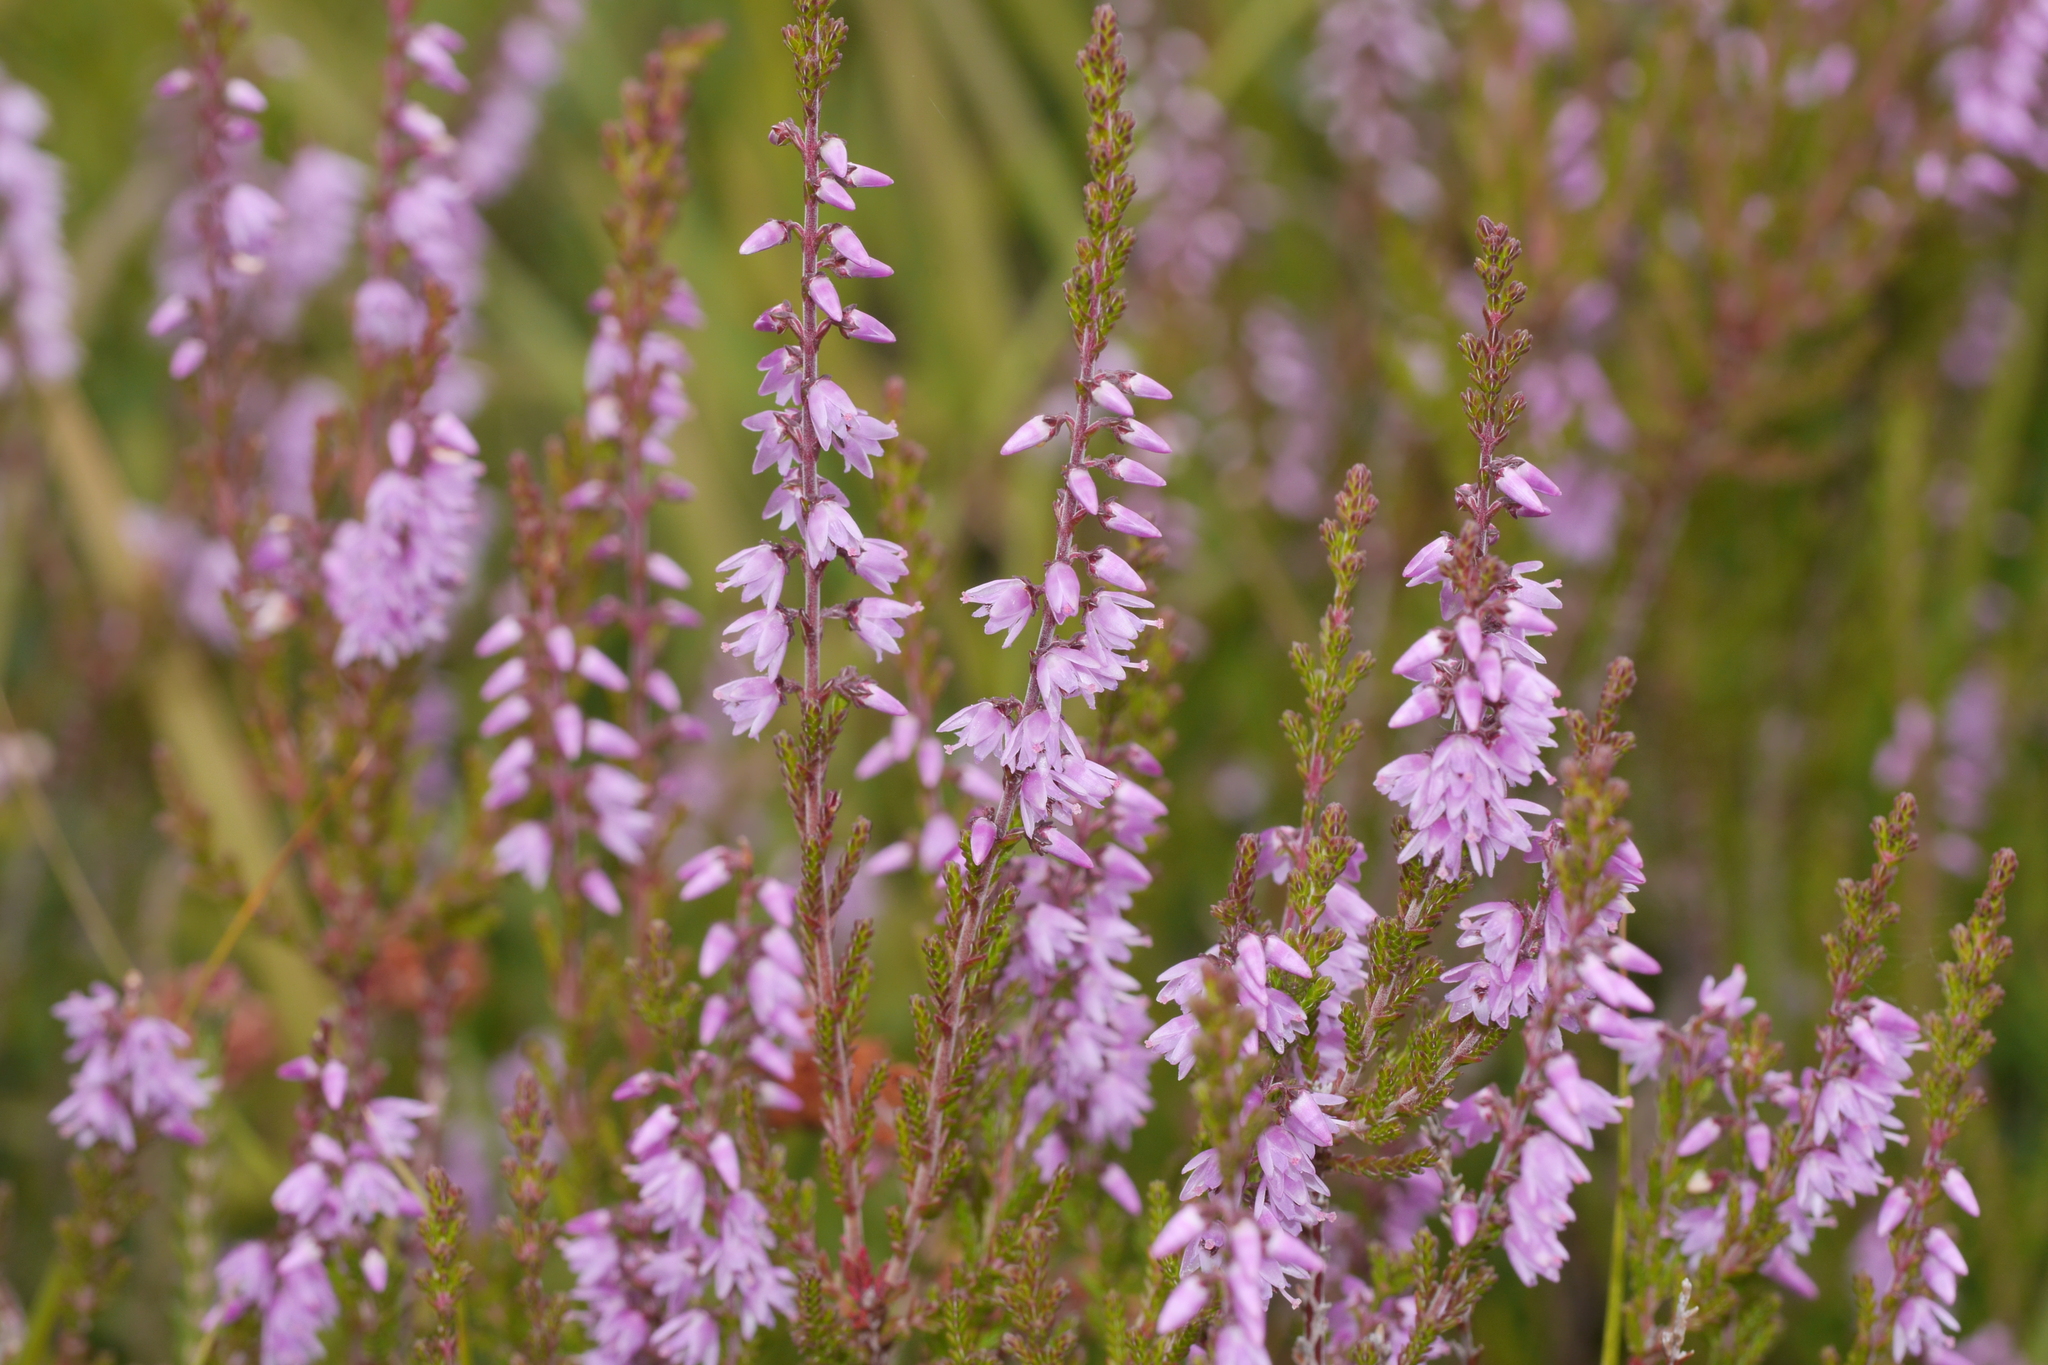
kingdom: Plantae
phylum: Tracheophyta
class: Magnoliopsida
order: Ericales
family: Ericaceae
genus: Calluna
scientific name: Calluna vulgaris
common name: Heather
